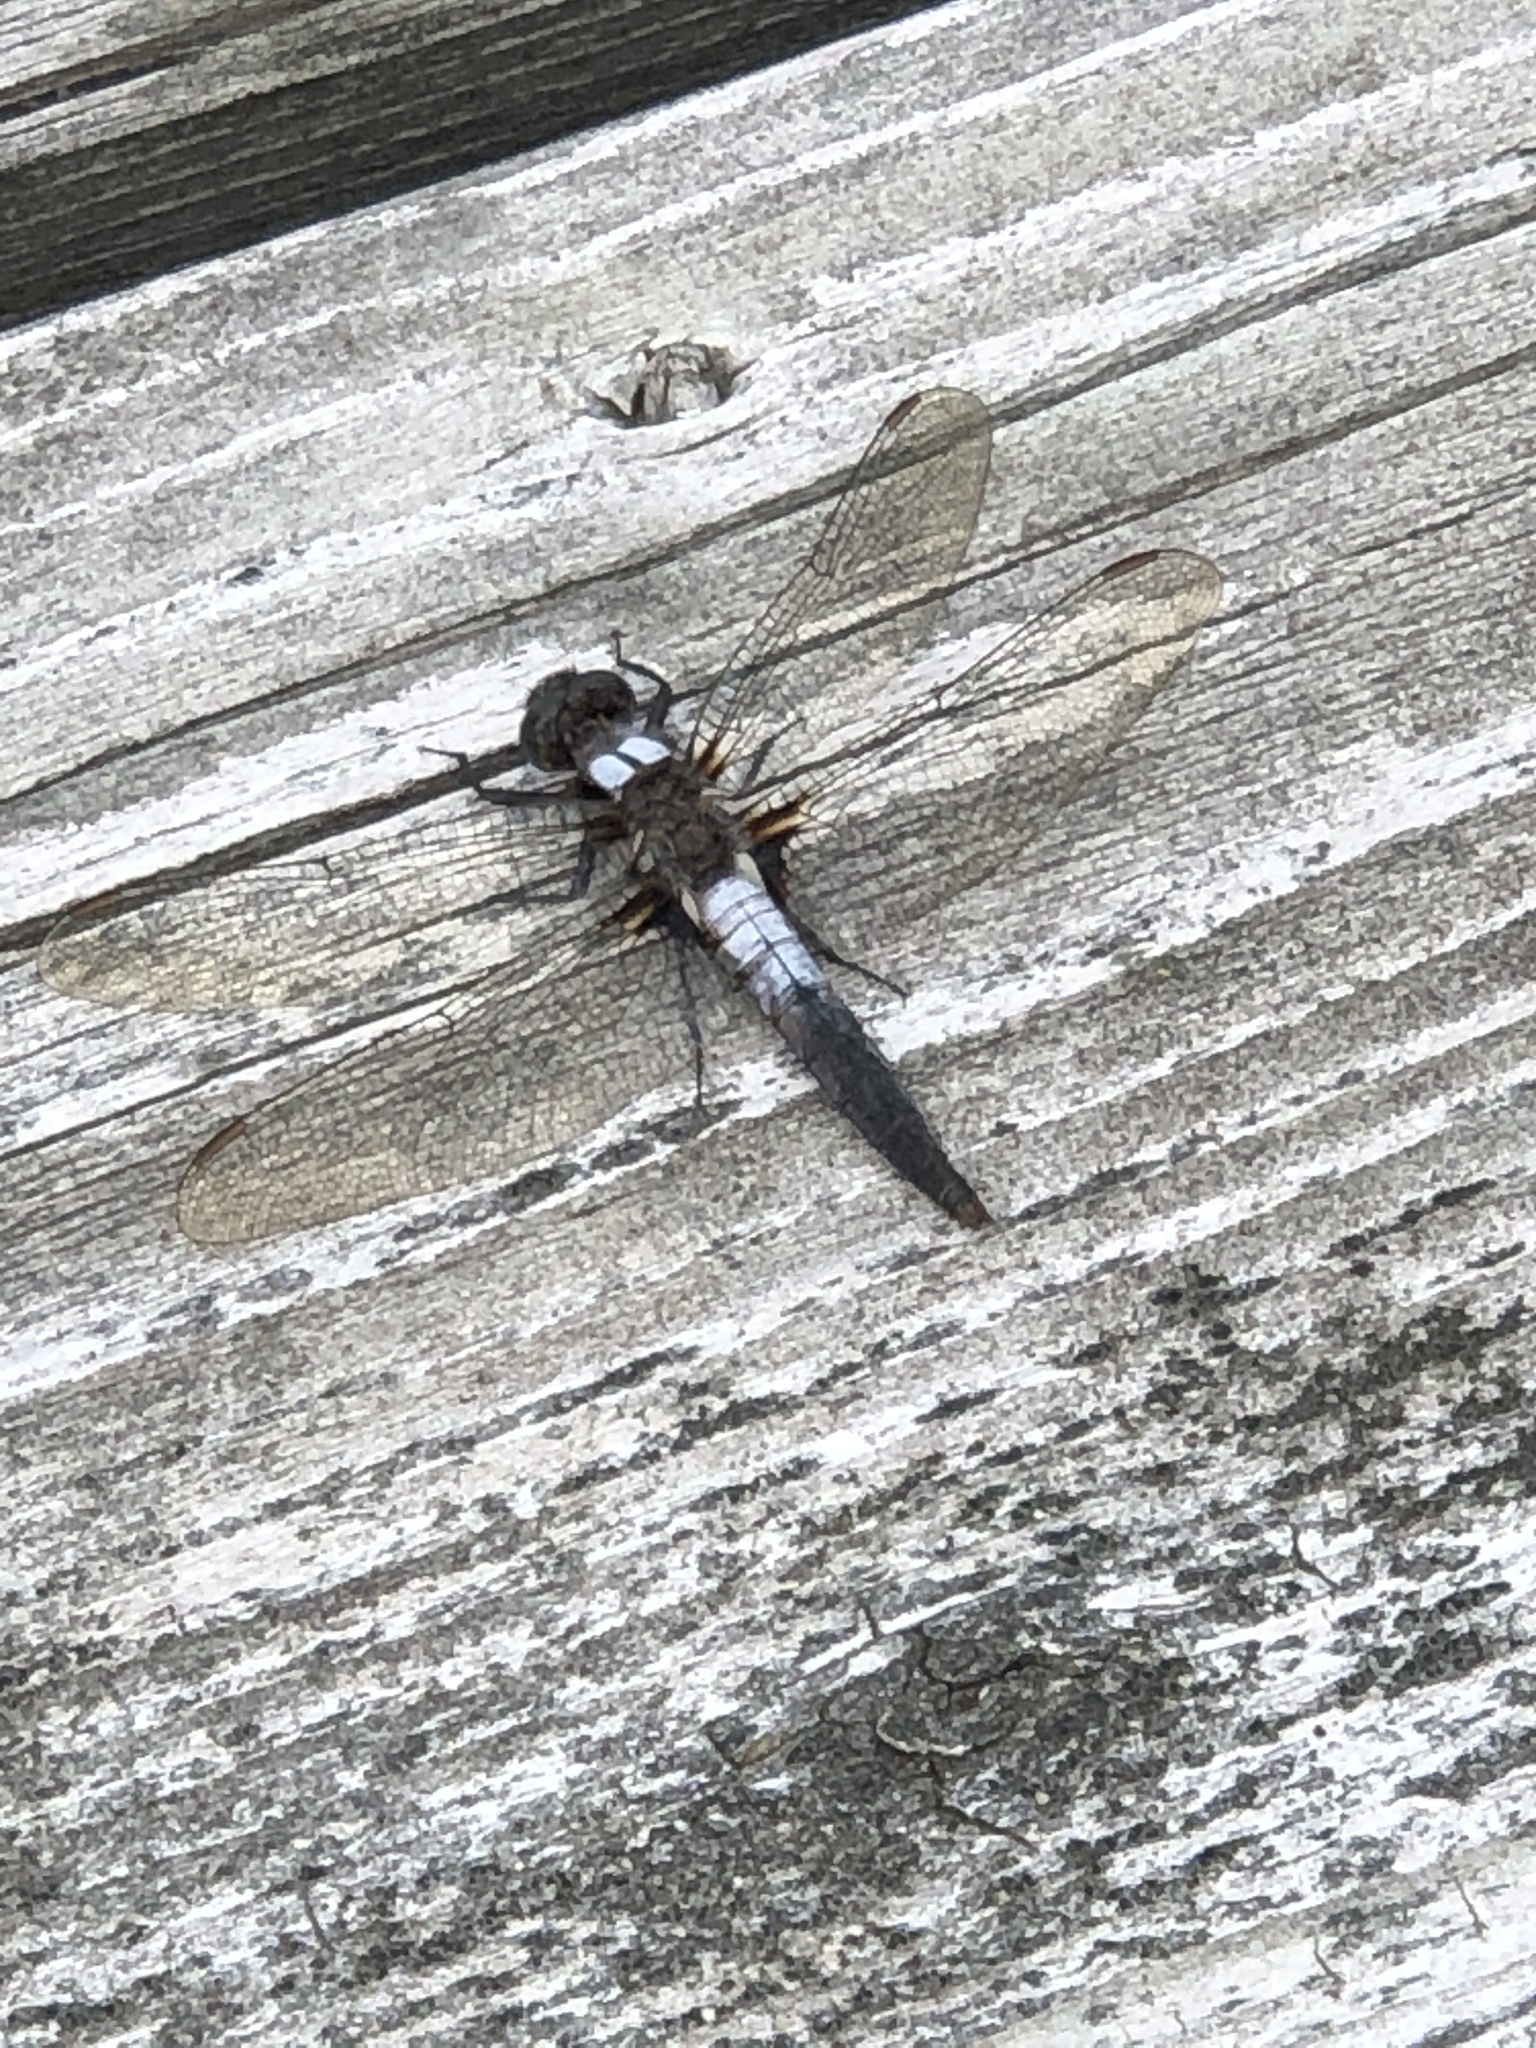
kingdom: Animalia
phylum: Arthropoda
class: Insecta
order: Odonata
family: Libellulidae
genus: Ladona
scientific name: Ladona julia
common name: Chalk-fronted corporal
